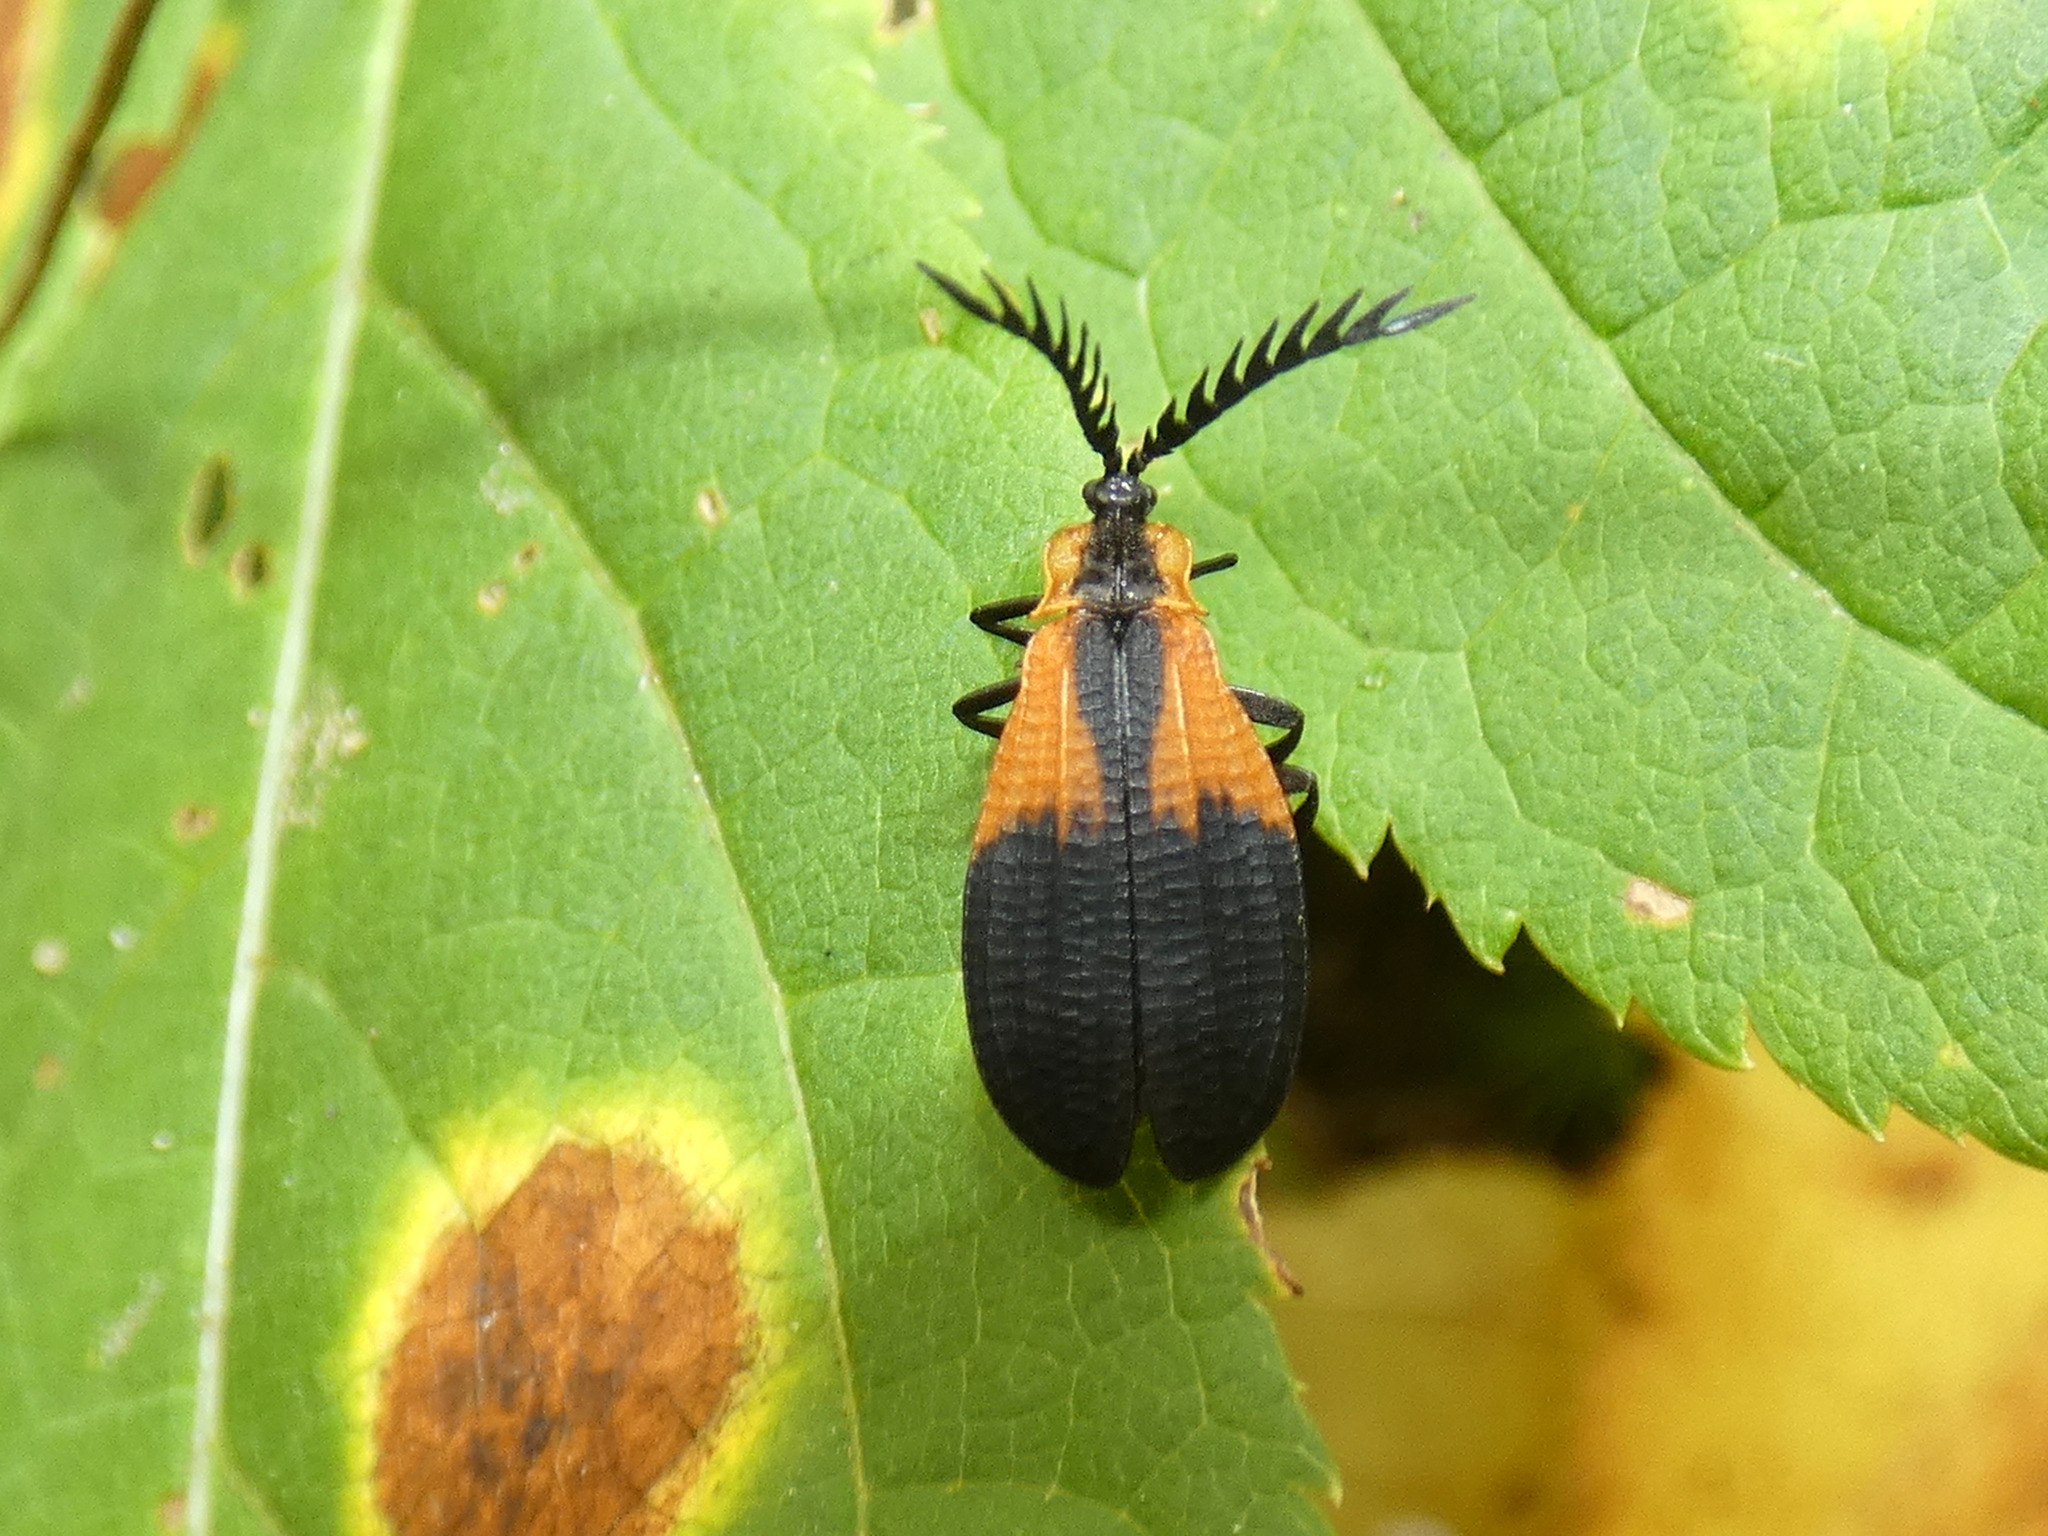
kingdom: Animalia
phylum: Arthropoda
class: Insecta
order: Coleoptera
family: Lycidae
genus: Caenia
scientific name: Caenia dimidiata
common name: Terminal net-winged beetle
